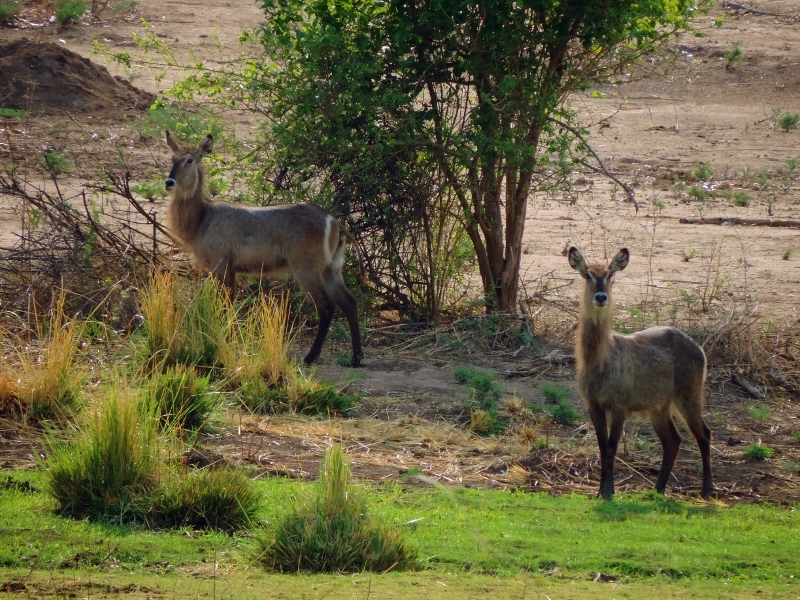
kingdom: Animalia
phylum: Chordata
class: Mammalia
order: Artiodactyla
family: Bovidae
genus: Kobus
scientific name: Kobus ellipsiprymnus
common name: Waterbuck
